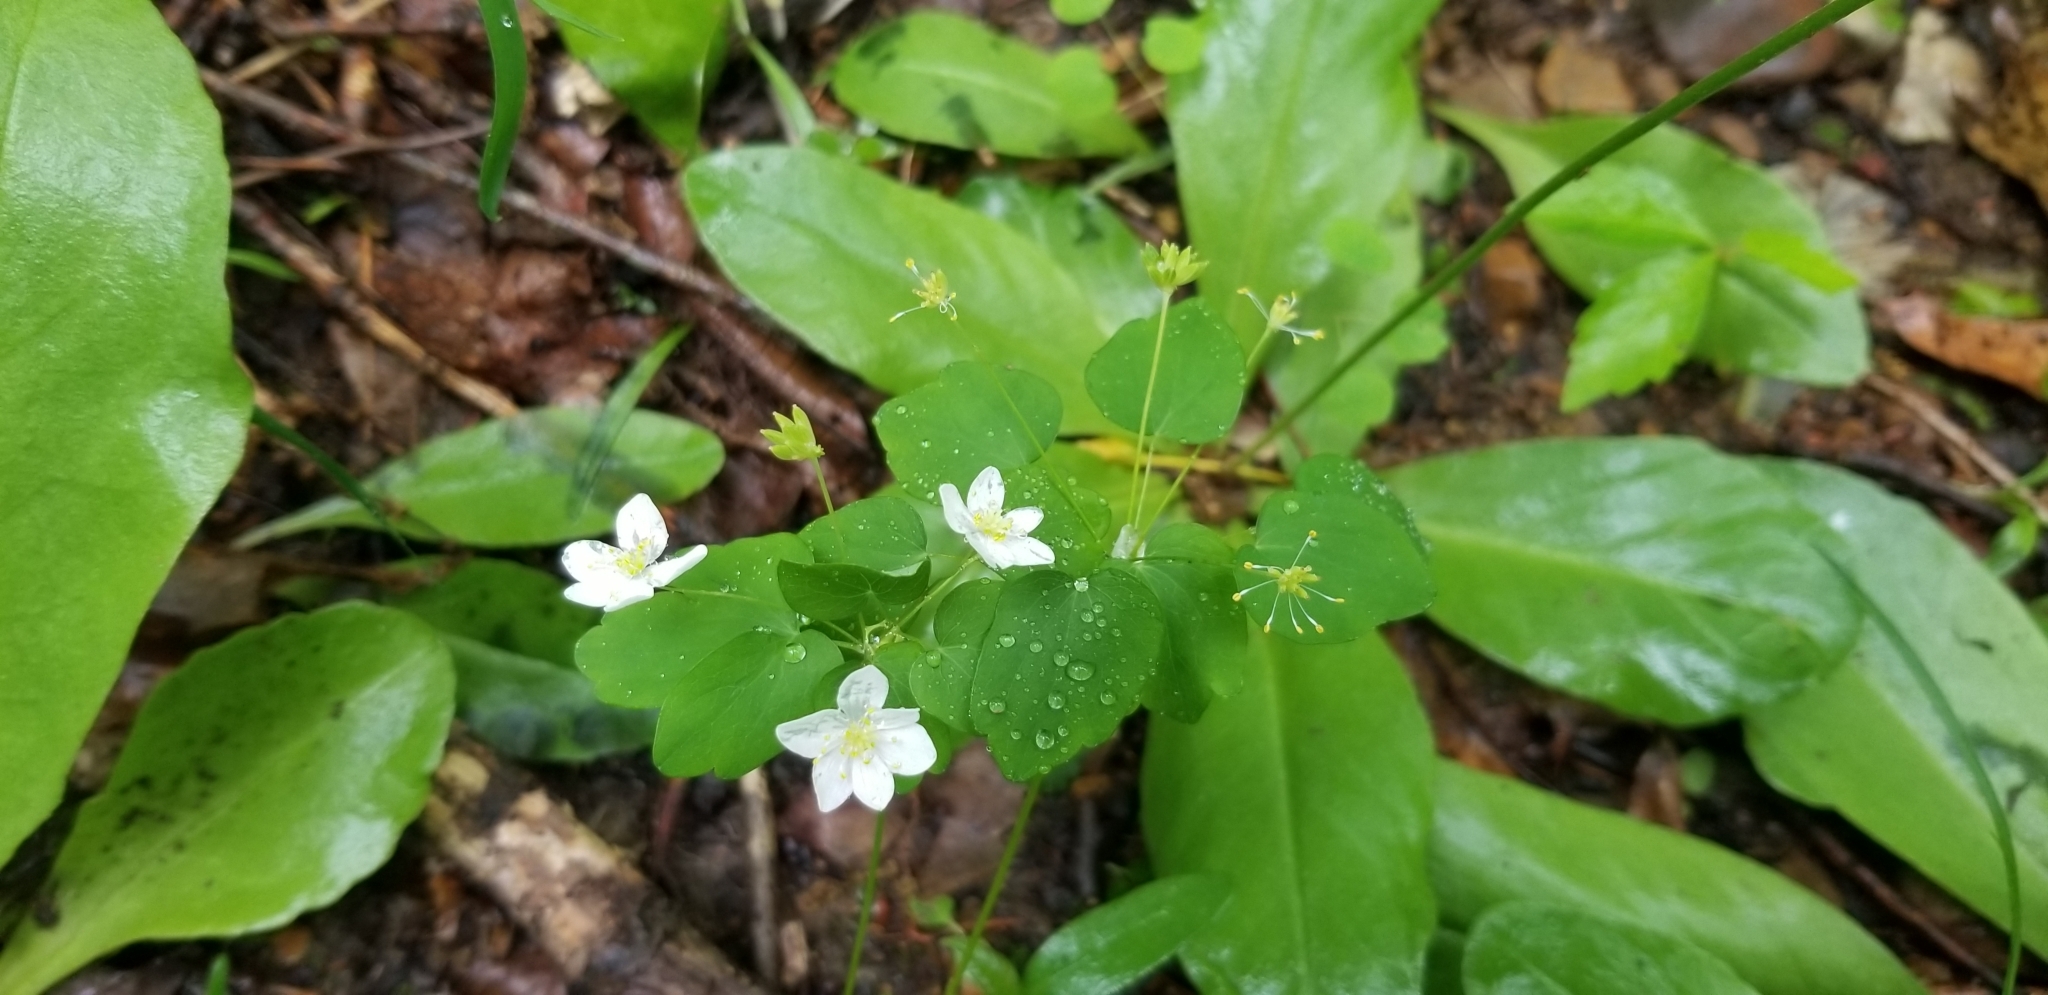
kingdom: Plantae
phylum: Tracheophyta
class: Magnoliopsida
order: Ranunculales
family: Ranunculaceae
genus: Thalictrum
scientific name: Thalictrum thalictroides
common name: Rue-anemone
